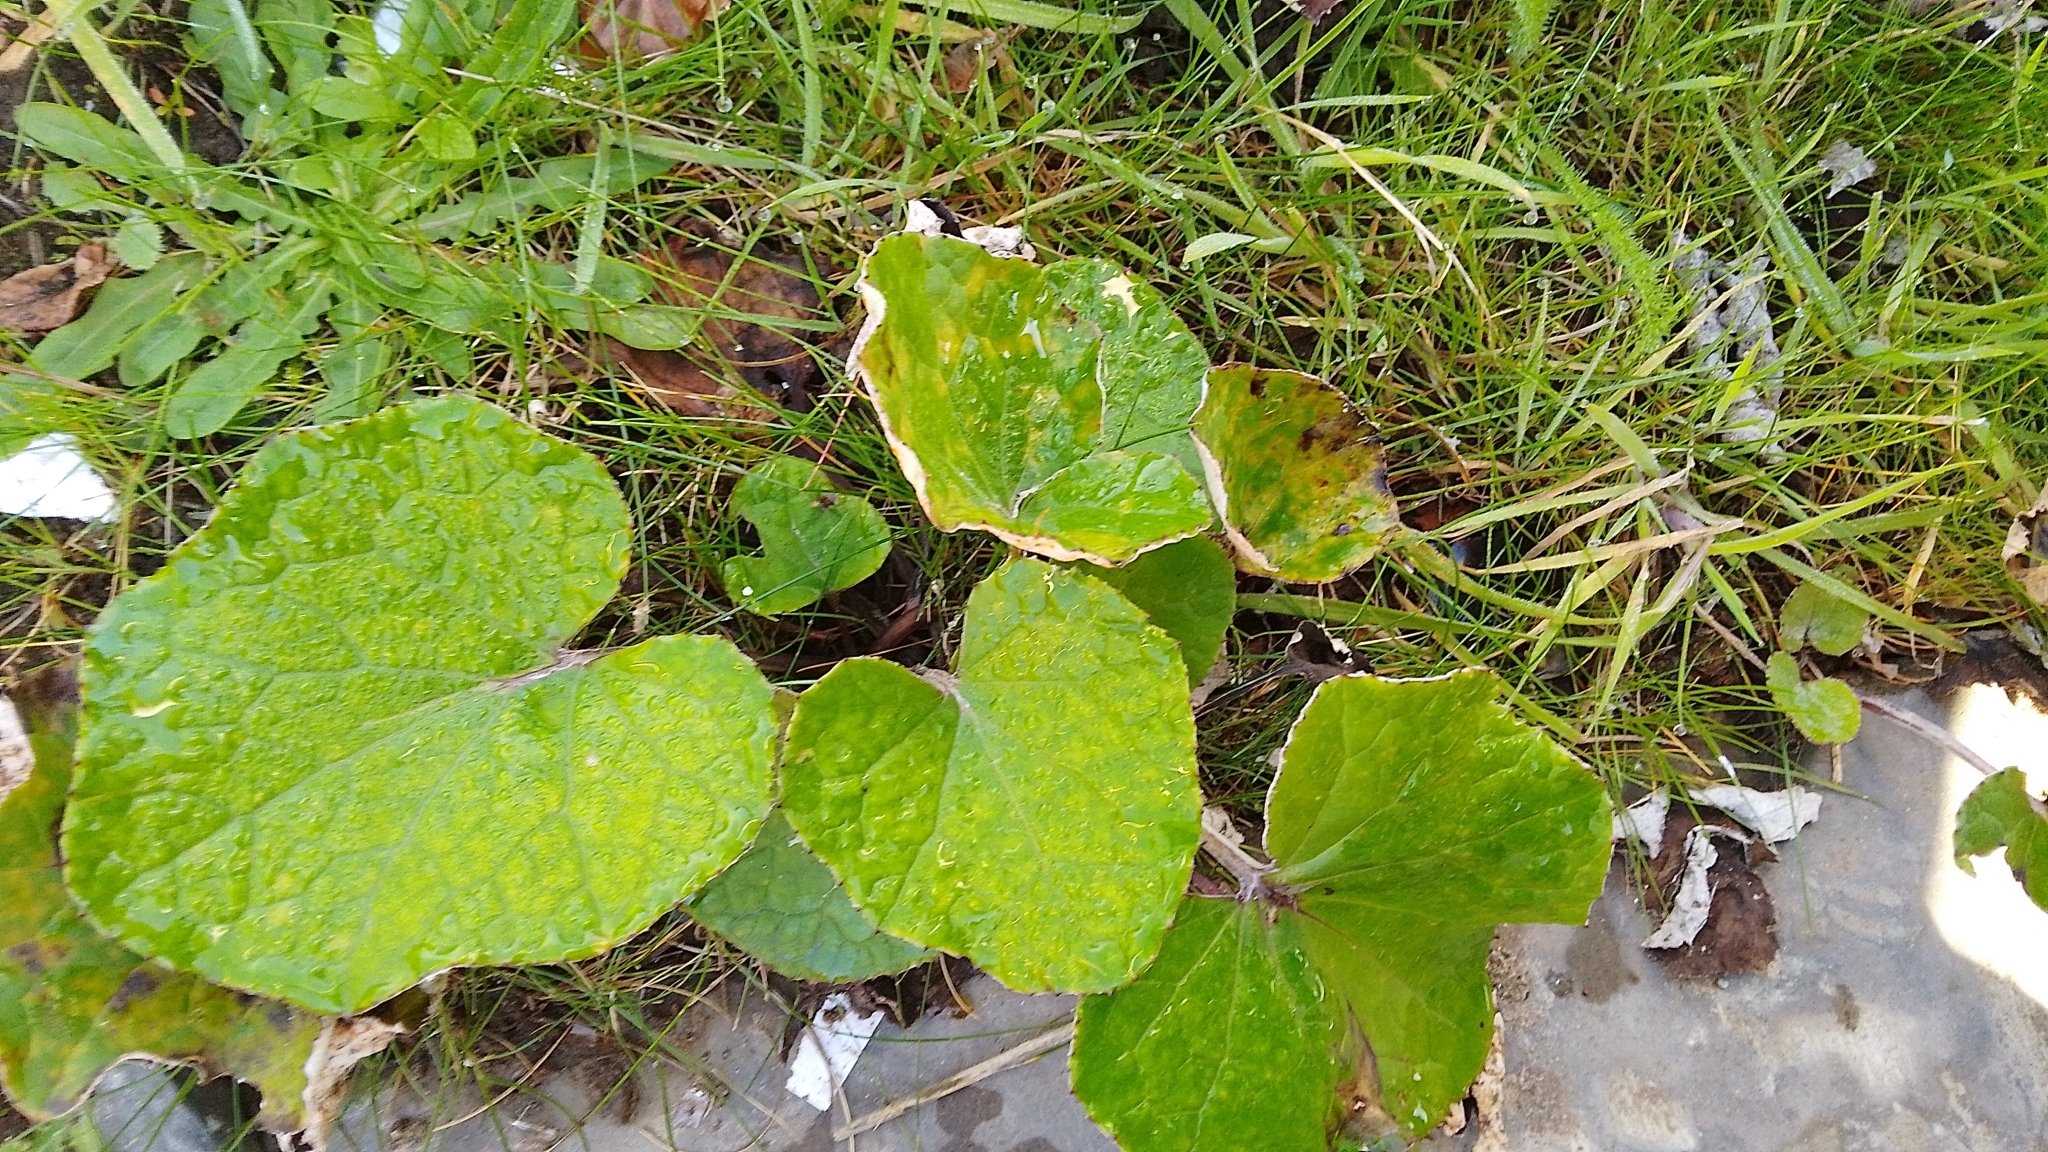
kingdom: Plantae
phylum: Tracheophyta
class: Magnoliopsida
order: Asterales
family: Asteraceae
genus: Tussilago
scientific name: Tussilago farfara
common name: Coltsfoot
